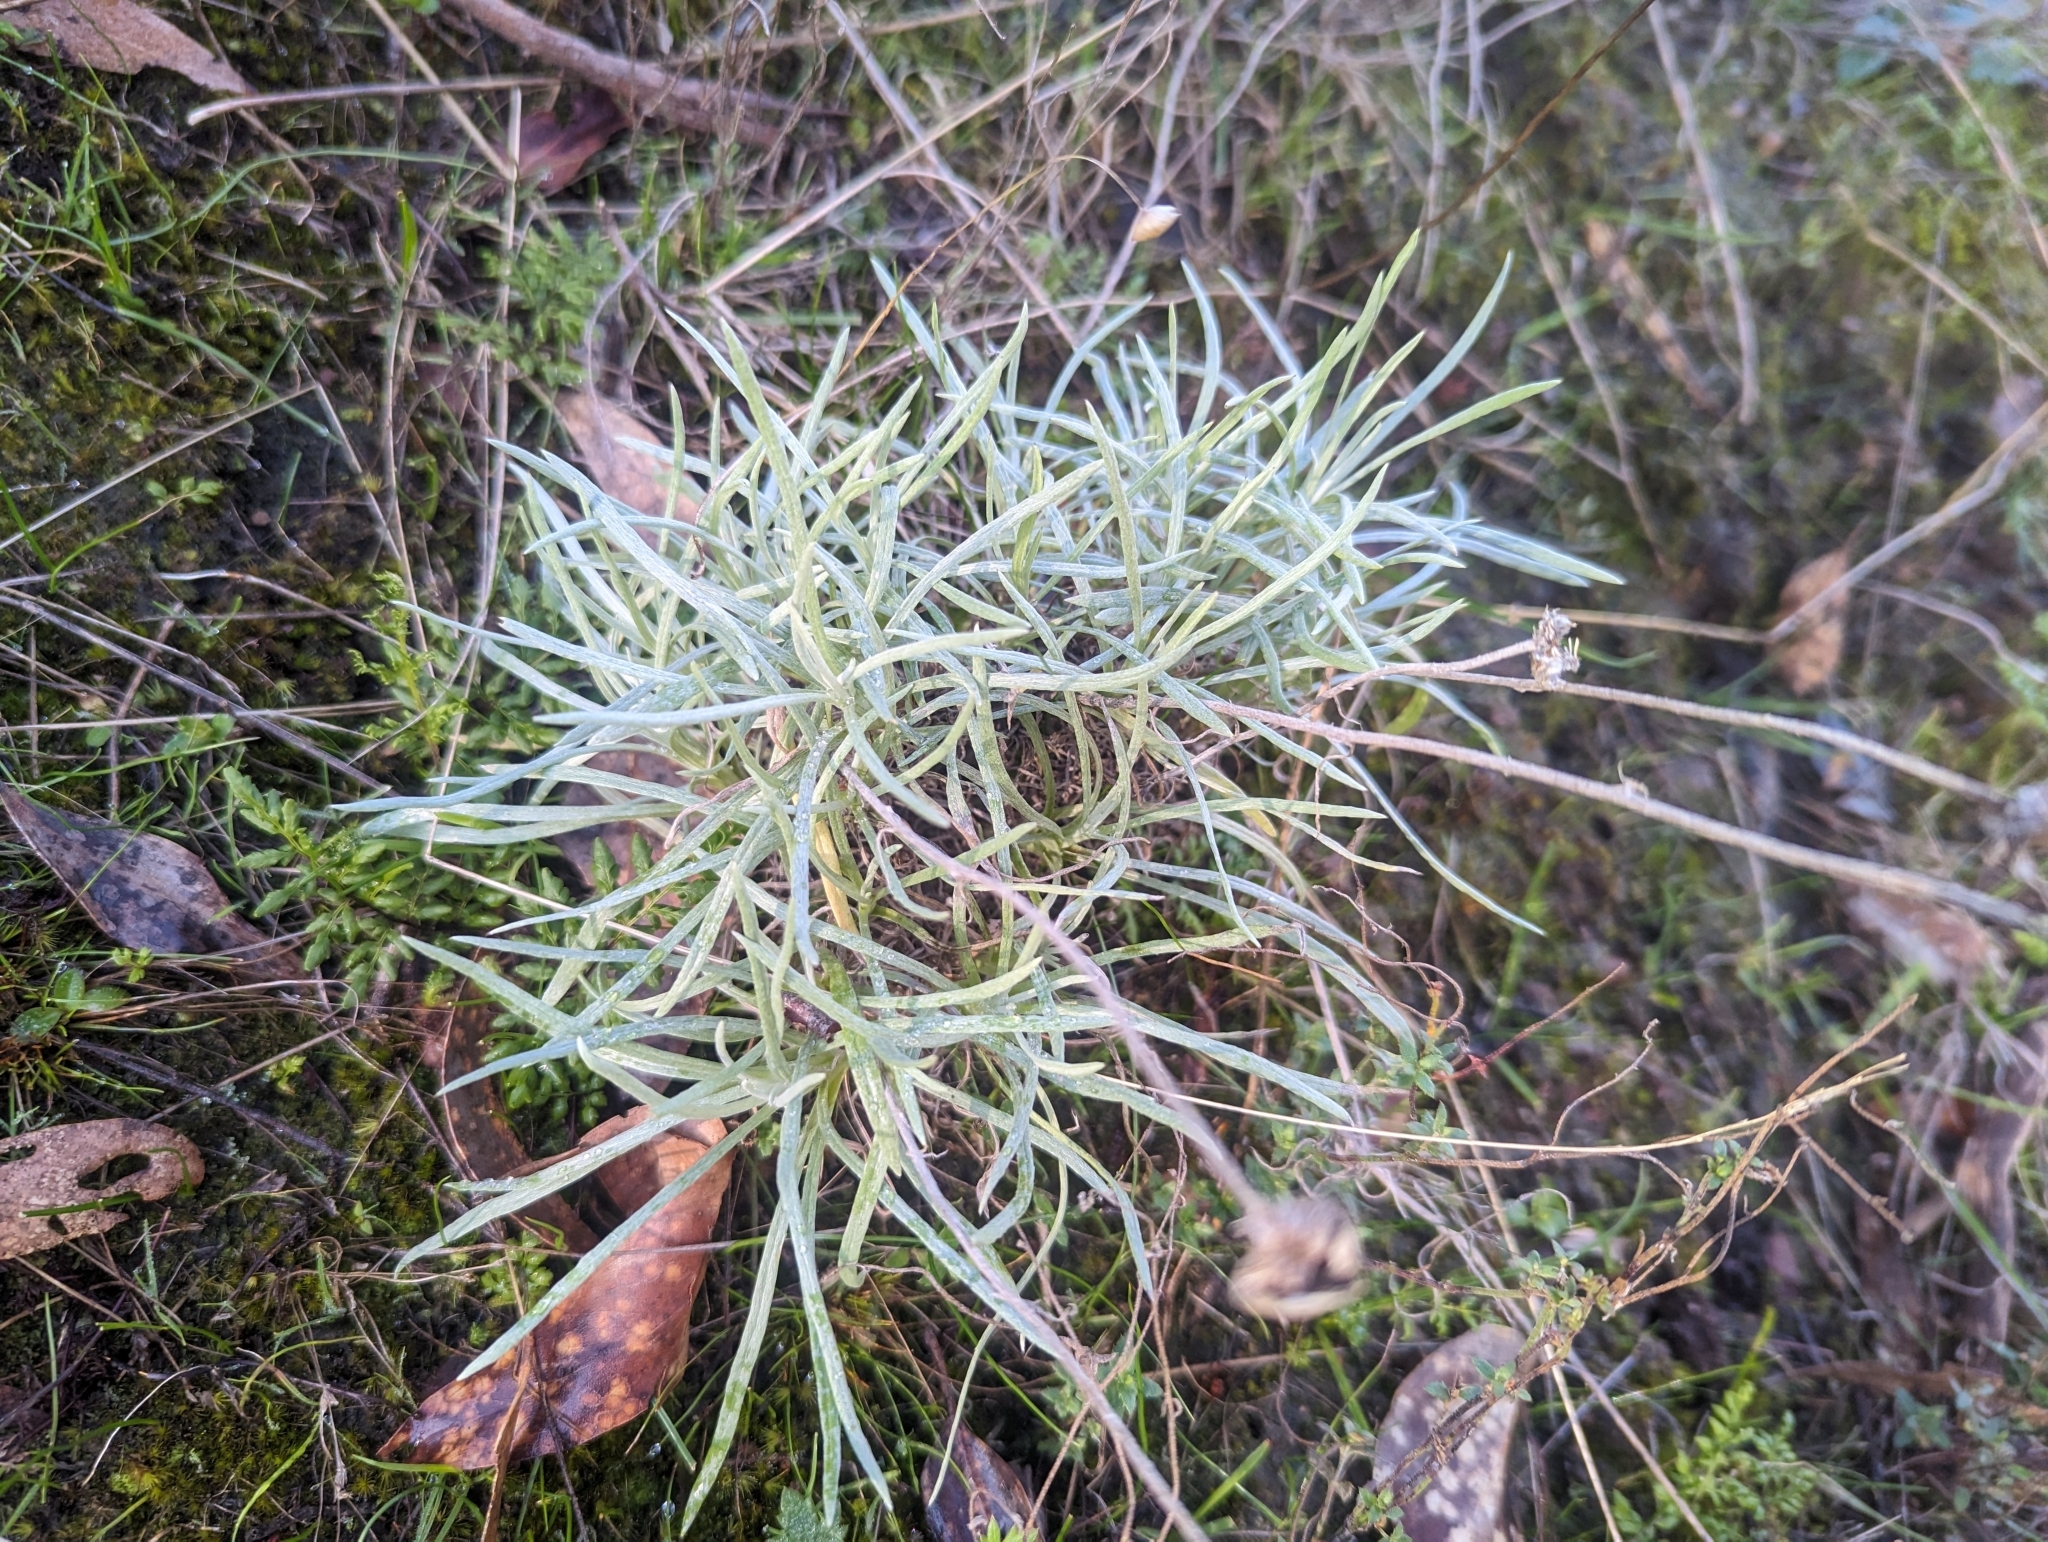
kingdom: Plantae
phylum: Tracheophyta
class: Magnoliopsida
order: Asterales
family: Asteraceae
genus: Leucochrysum
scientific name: Leucochrysum albicans
